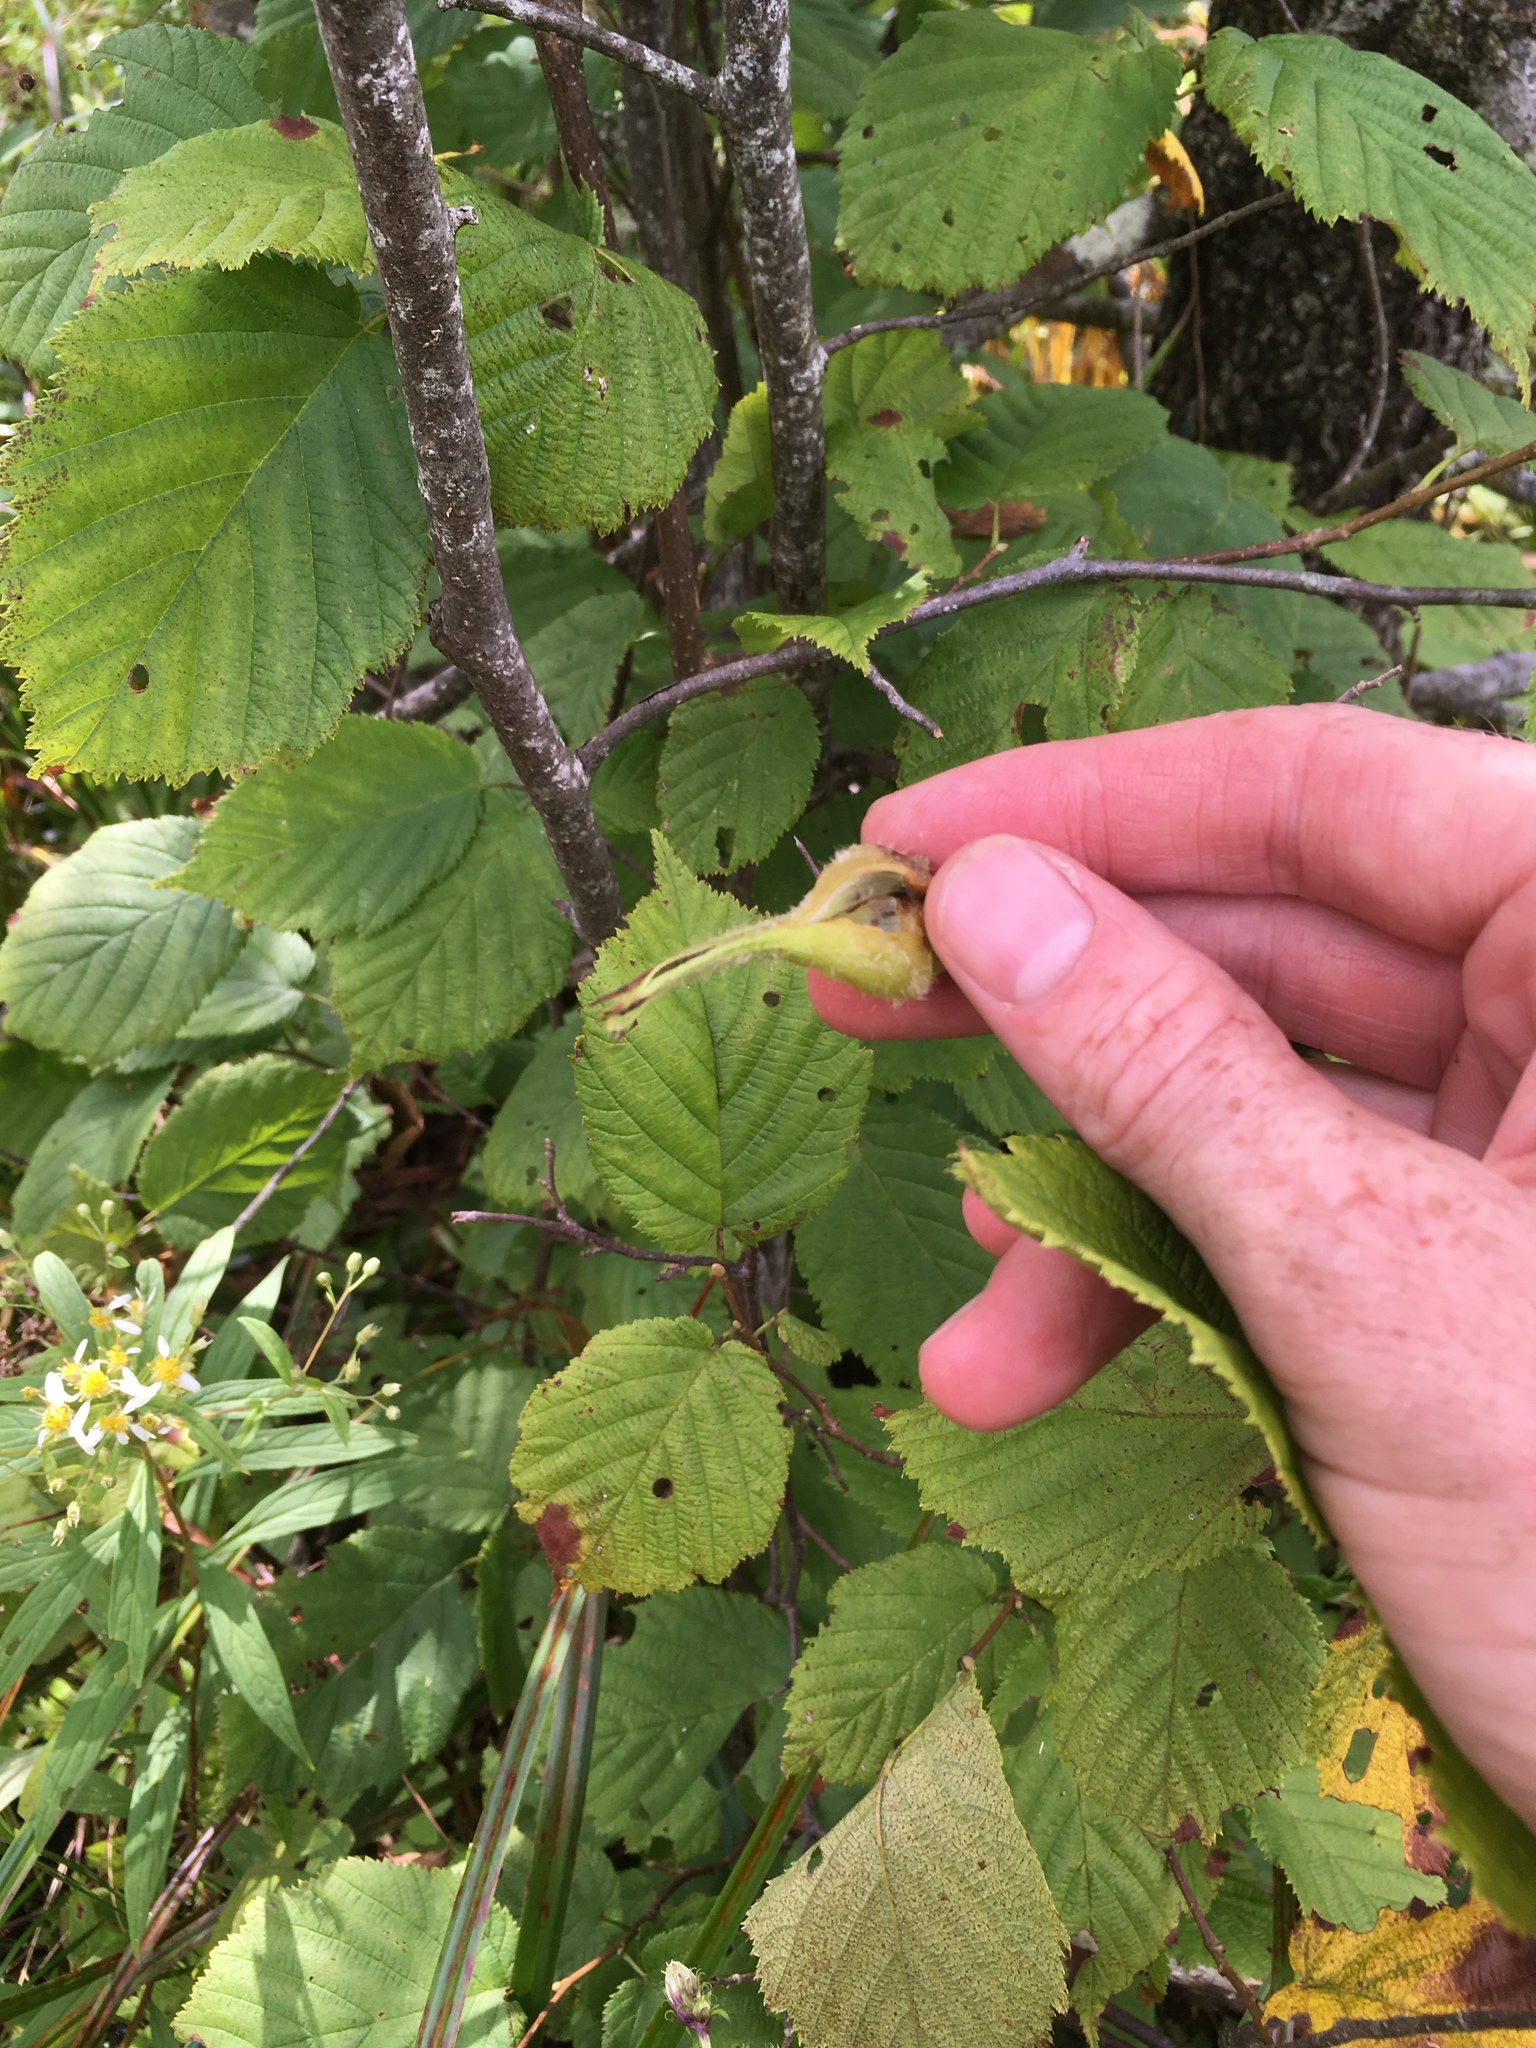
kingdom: Plantae
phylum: Tracheophyta
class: Magnoliopsida
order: Fagales
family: Betulaceae
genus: Corylus
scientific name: Corylus cornuta
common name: Beaked hazel
